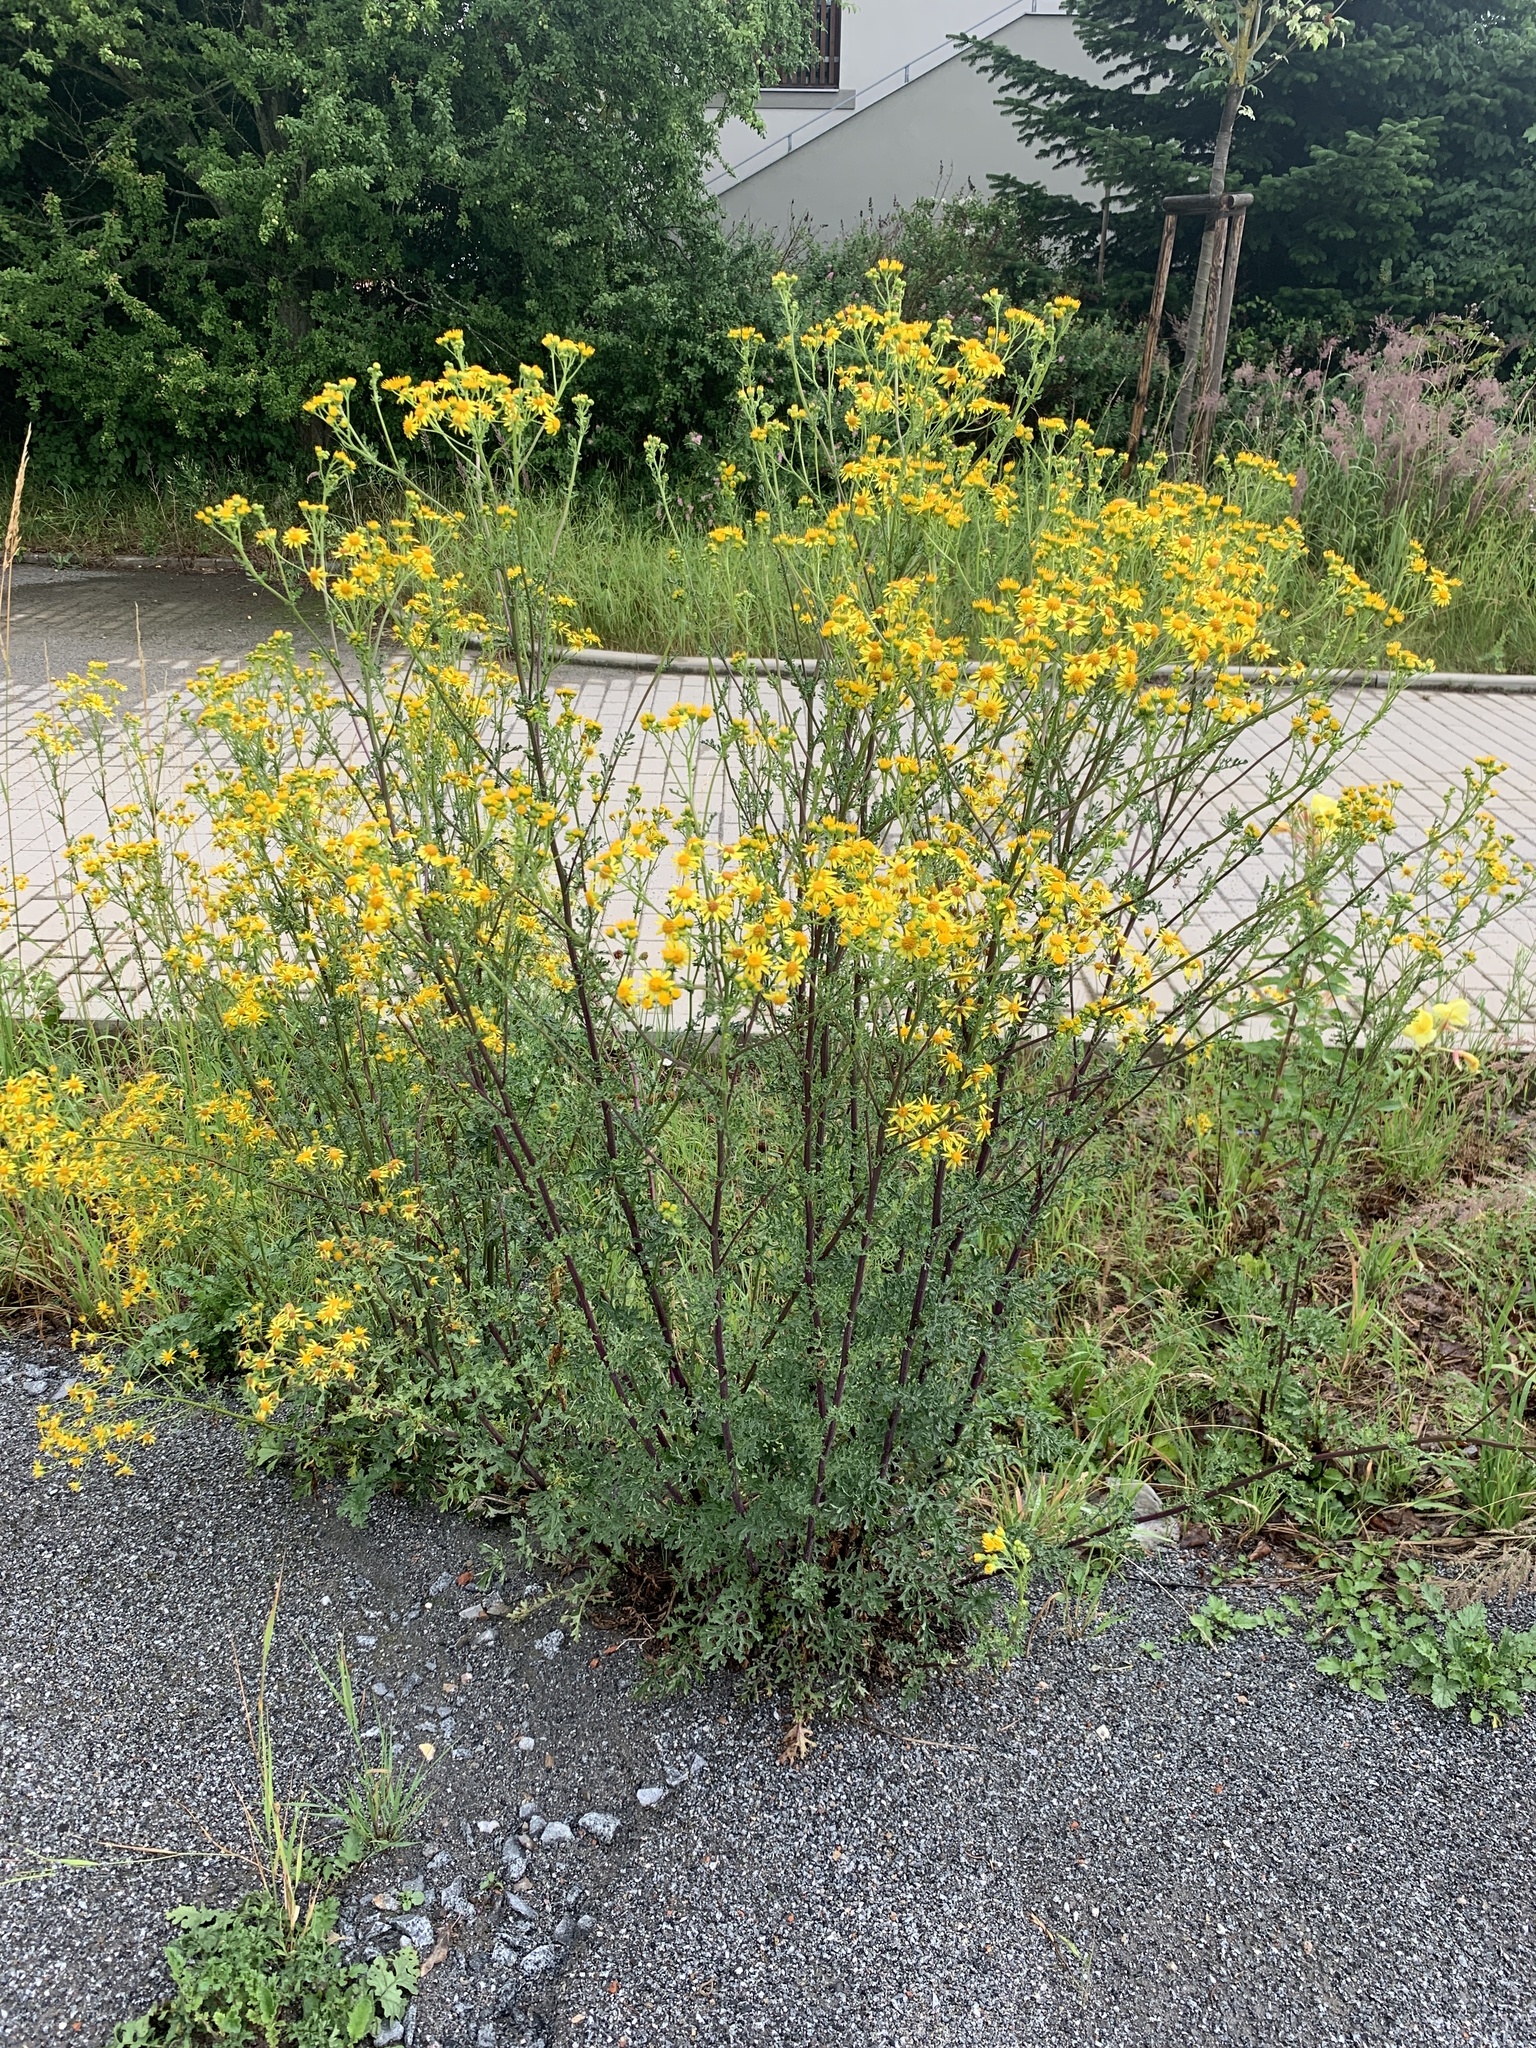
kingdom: Plantae
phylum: Tracheophyta
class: Magnoliopsida
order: Asterales
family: Asteraceae
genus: Jacobaea
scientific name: Jacobaea vulgaris
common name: Stinking willie
